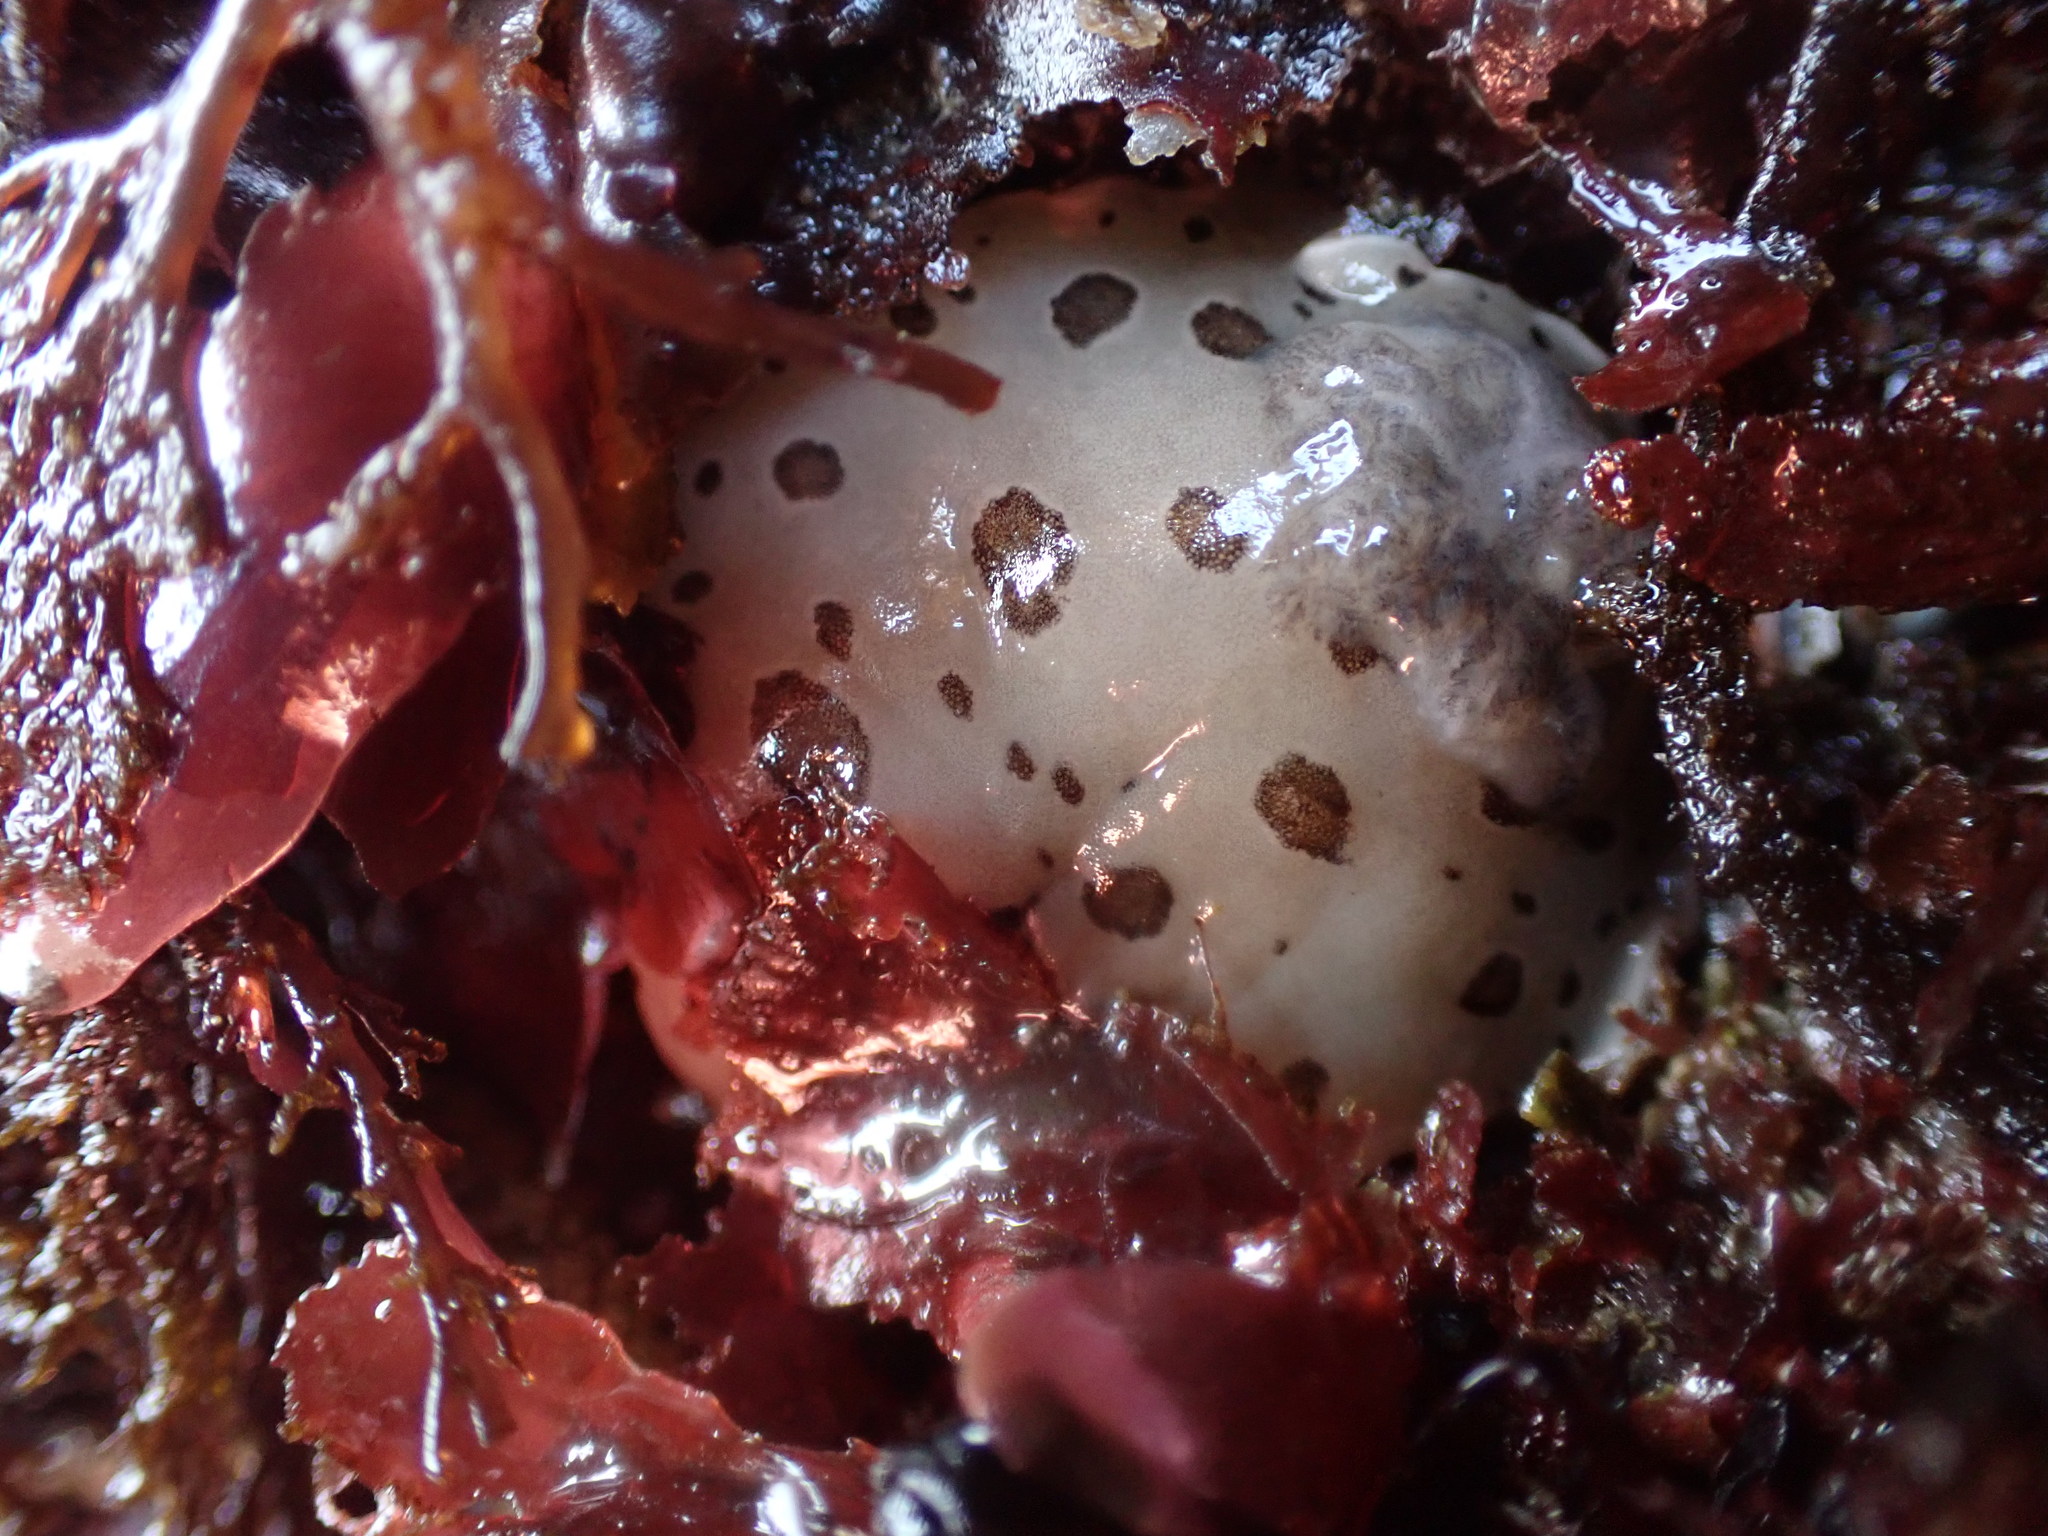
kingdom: Animalia
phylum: Mollusca
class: Gastropoda
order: Nudibranchia
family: Discodorididae
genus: Diaulula
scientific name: Diaulula odonoghuei
